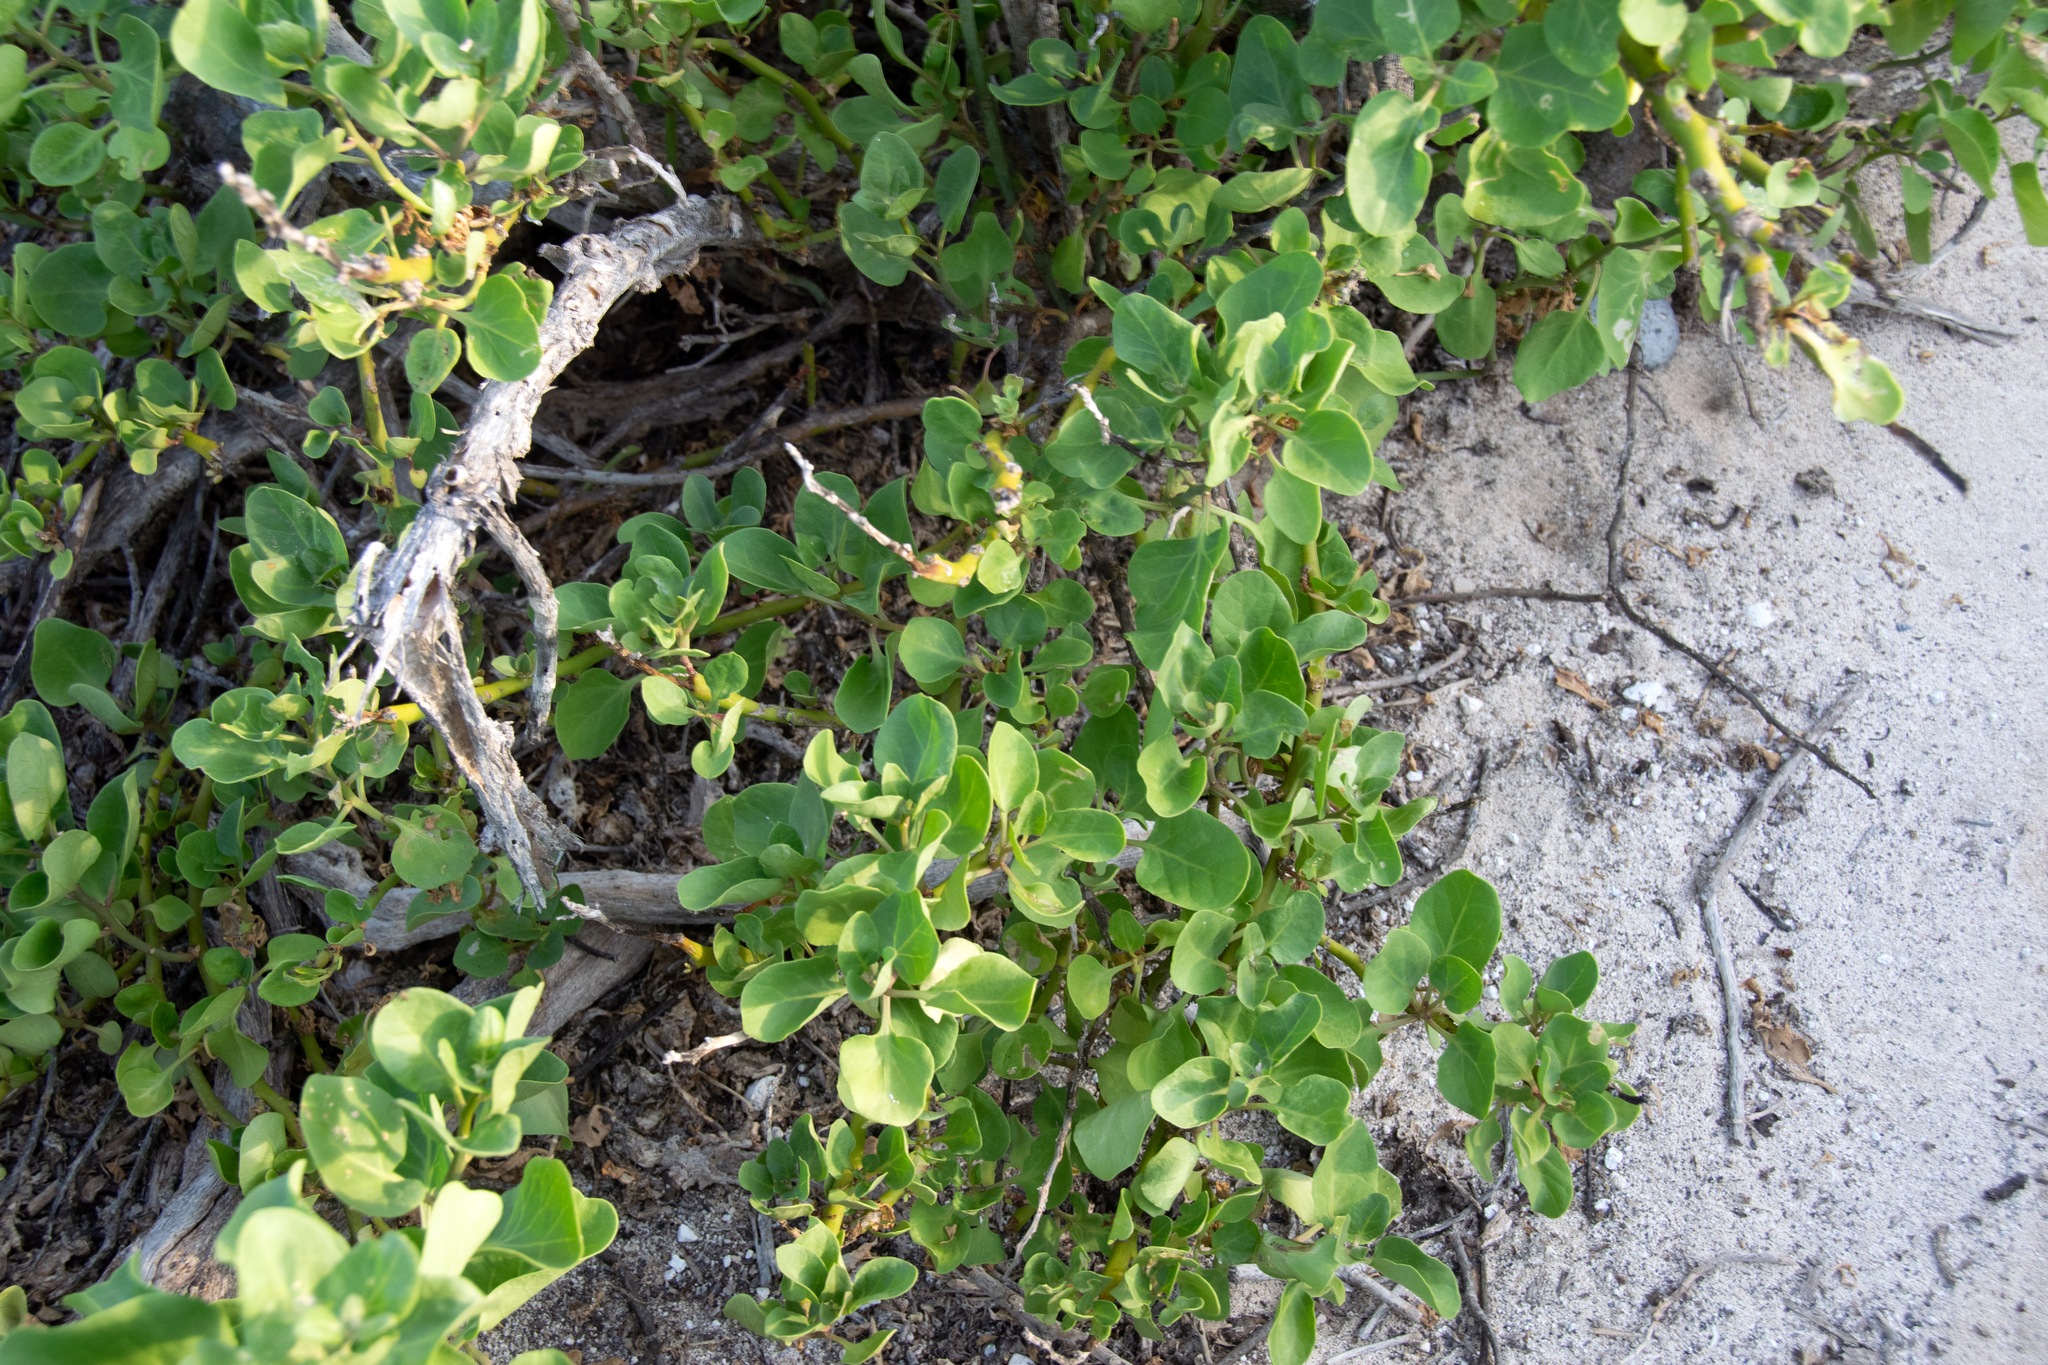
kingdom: Plantae
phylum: Tracheophyta
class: Magnoliopsida
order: Caryophyllales
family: Nyctaginaceae
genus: Cryptocarpus
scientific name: Cryptocarpus pyriformis
